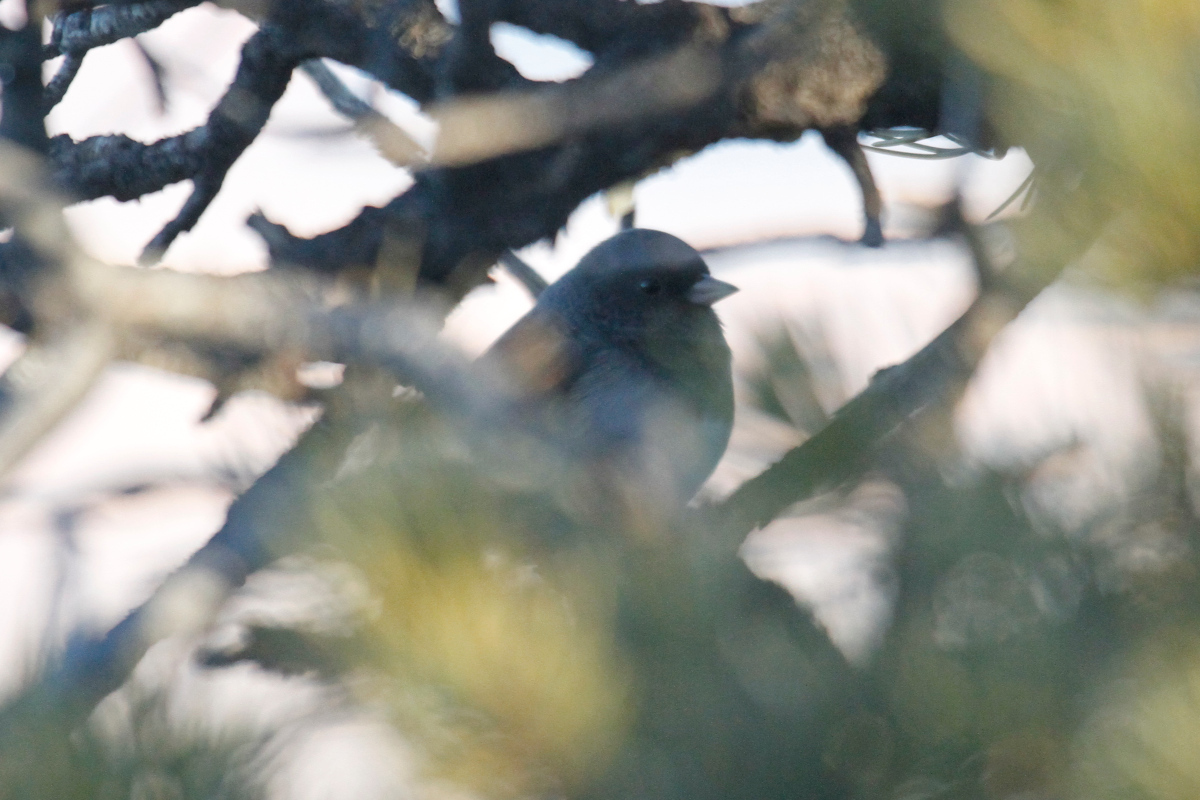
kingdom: Animalia
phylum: Chordata
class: Aves
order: Passeriformes
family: Passerellidae
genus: Junco
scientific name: Junco hyemalis
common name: Dark-eyed junco
